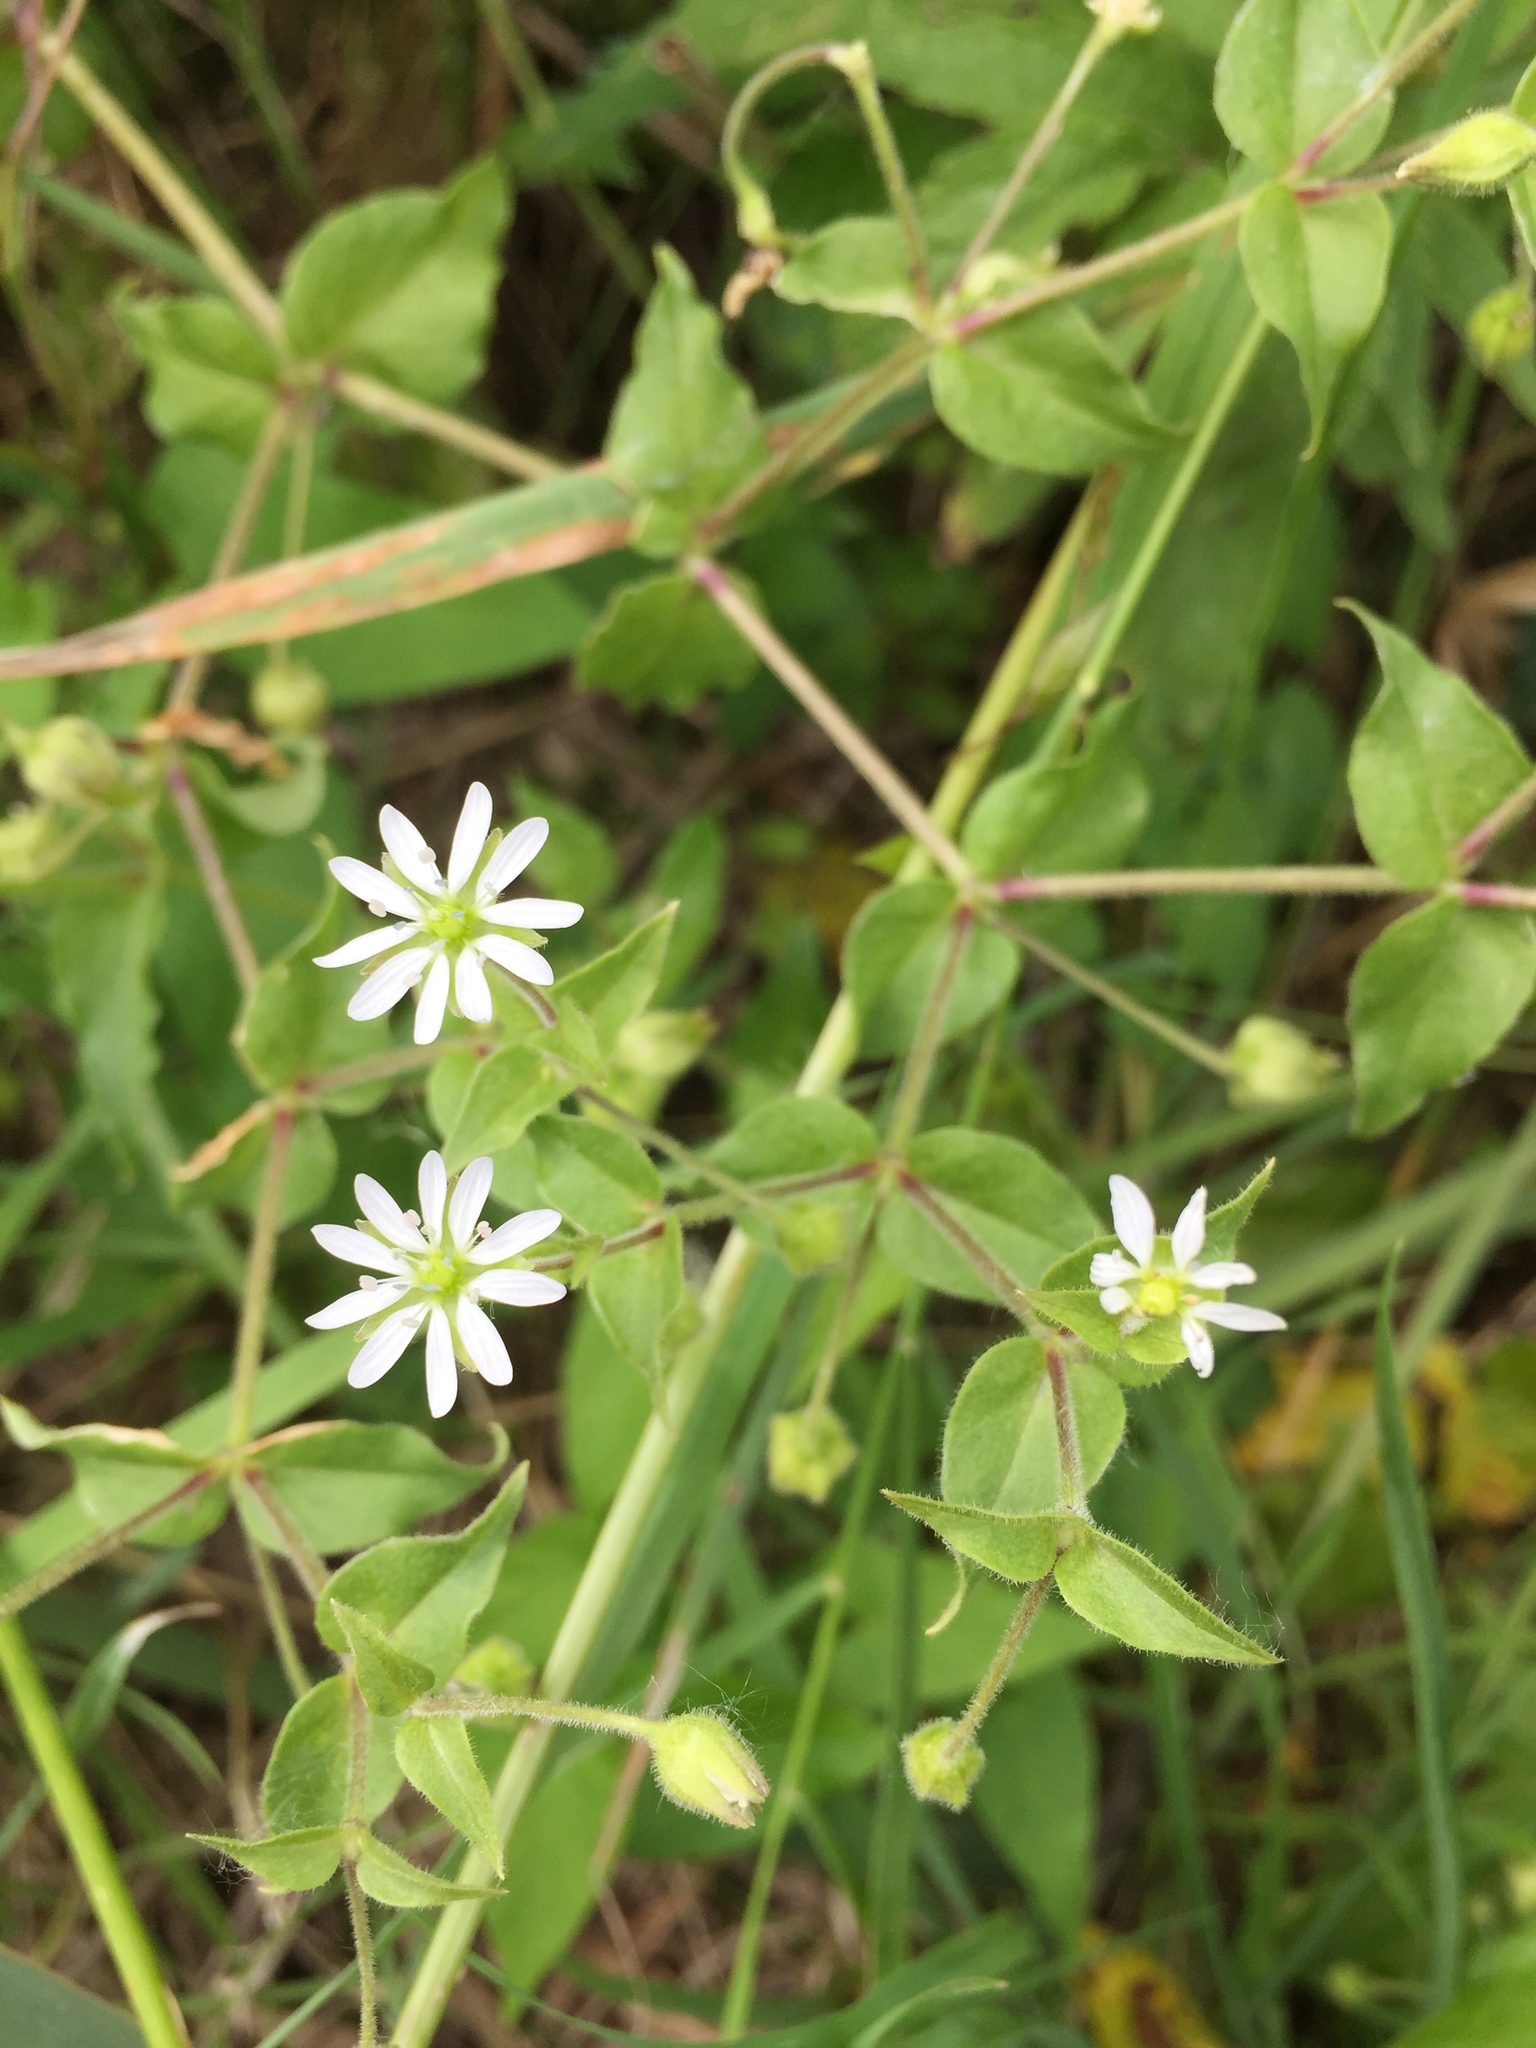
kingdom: Plantae
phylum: Tracheophyta
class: Magnoliopsida
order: Caryophyllales
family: Caryophyllaceae
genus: Stellaria
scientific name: Stellaria aquatica
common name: Water chickweed
